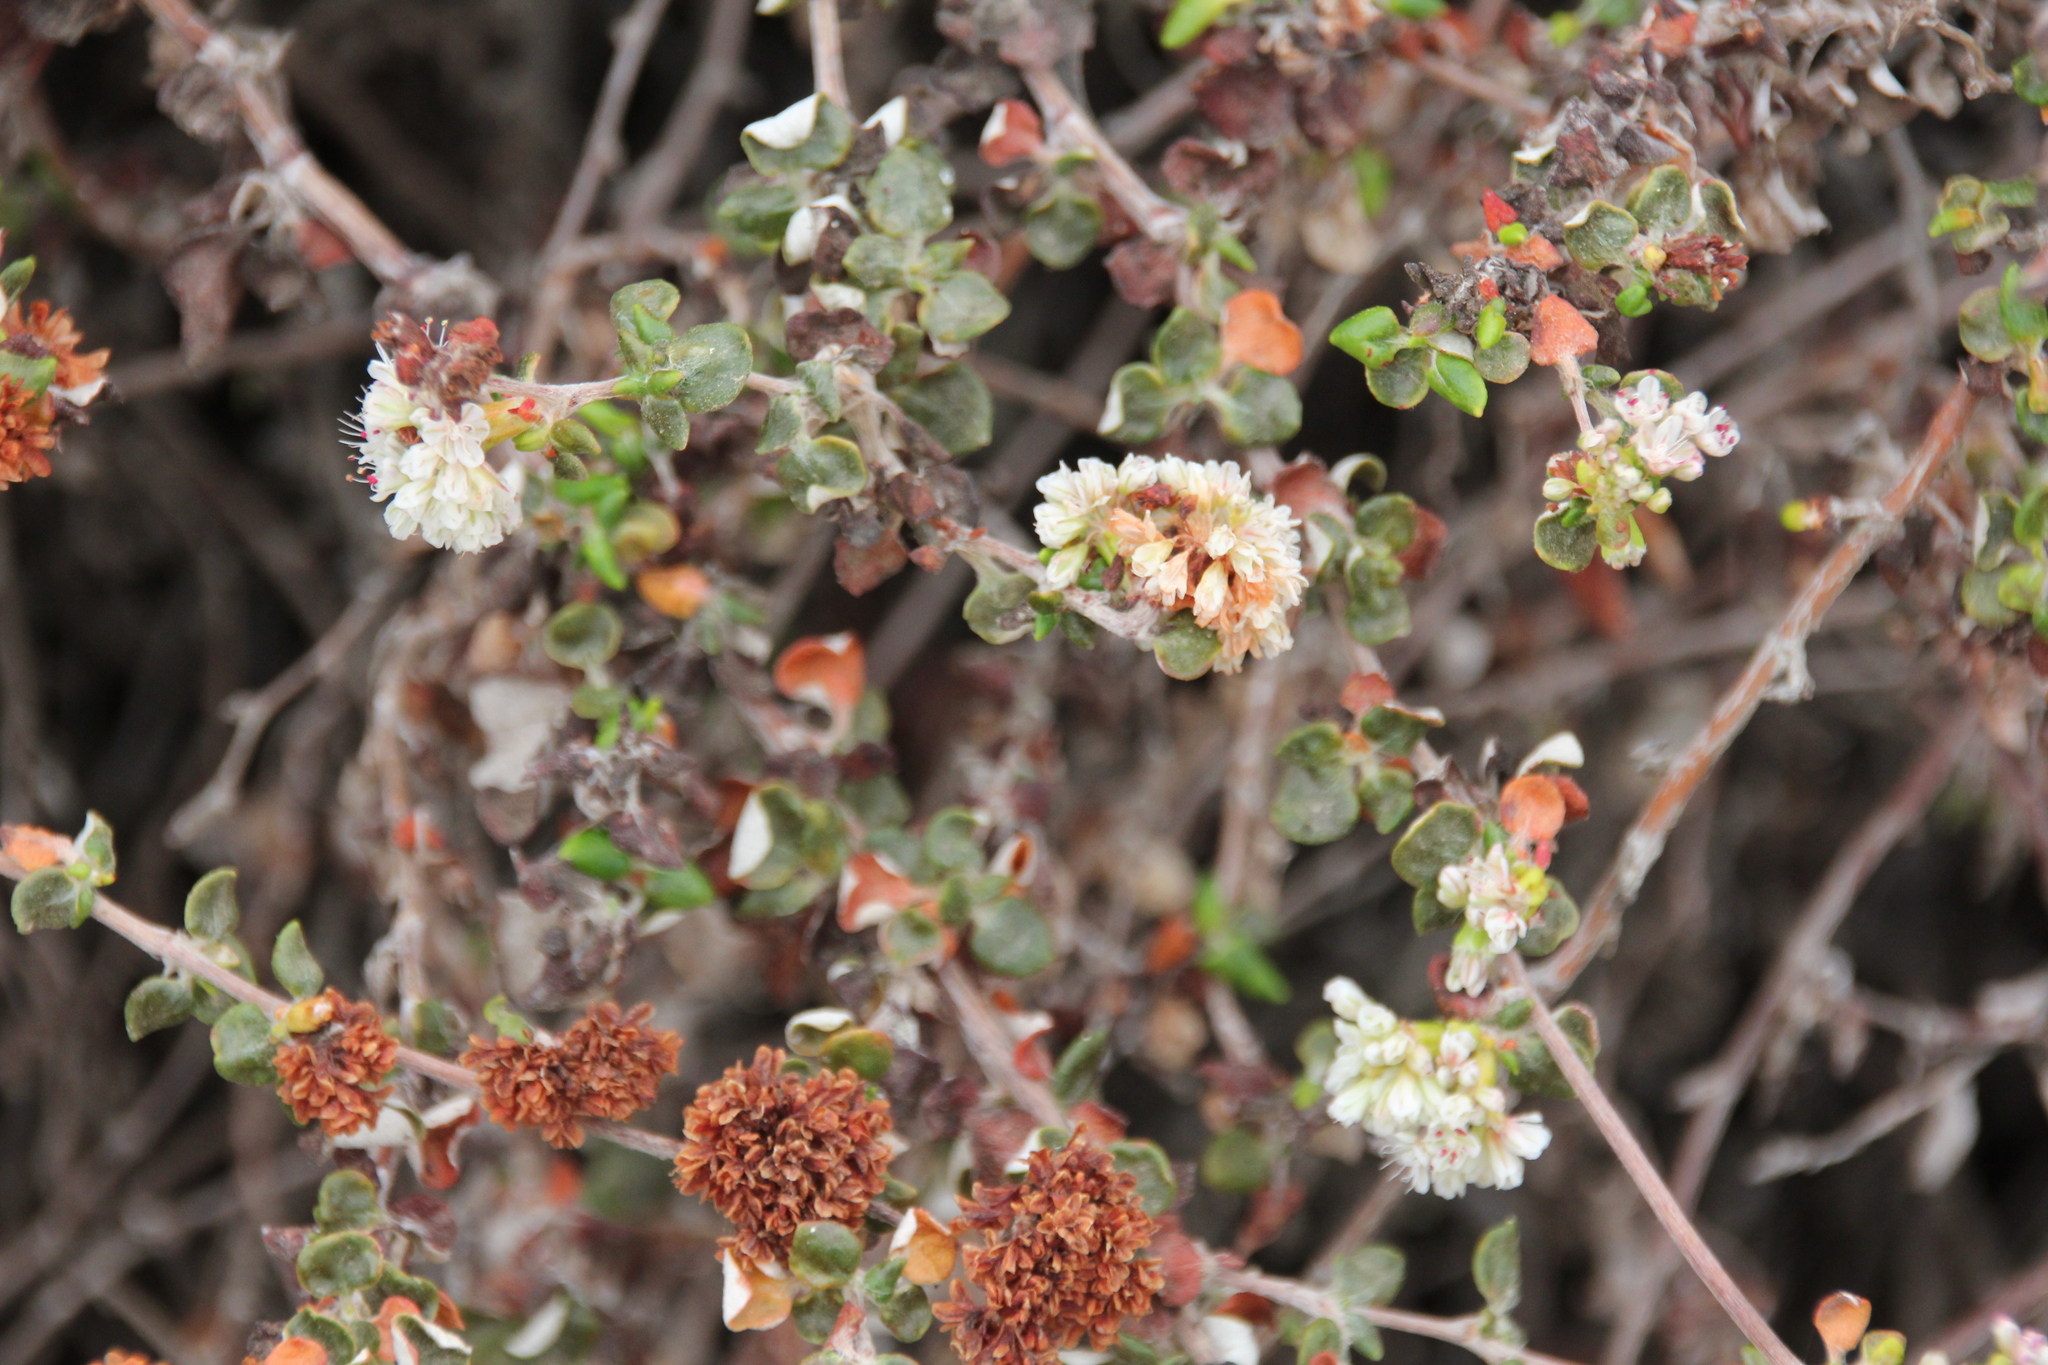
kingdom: Plantae
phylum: Tracheophyta
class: Magnoliopsida
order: Caryophyllales
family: Polygonaceae
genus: Eriogonum
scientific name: Eriogonum parvifolium
